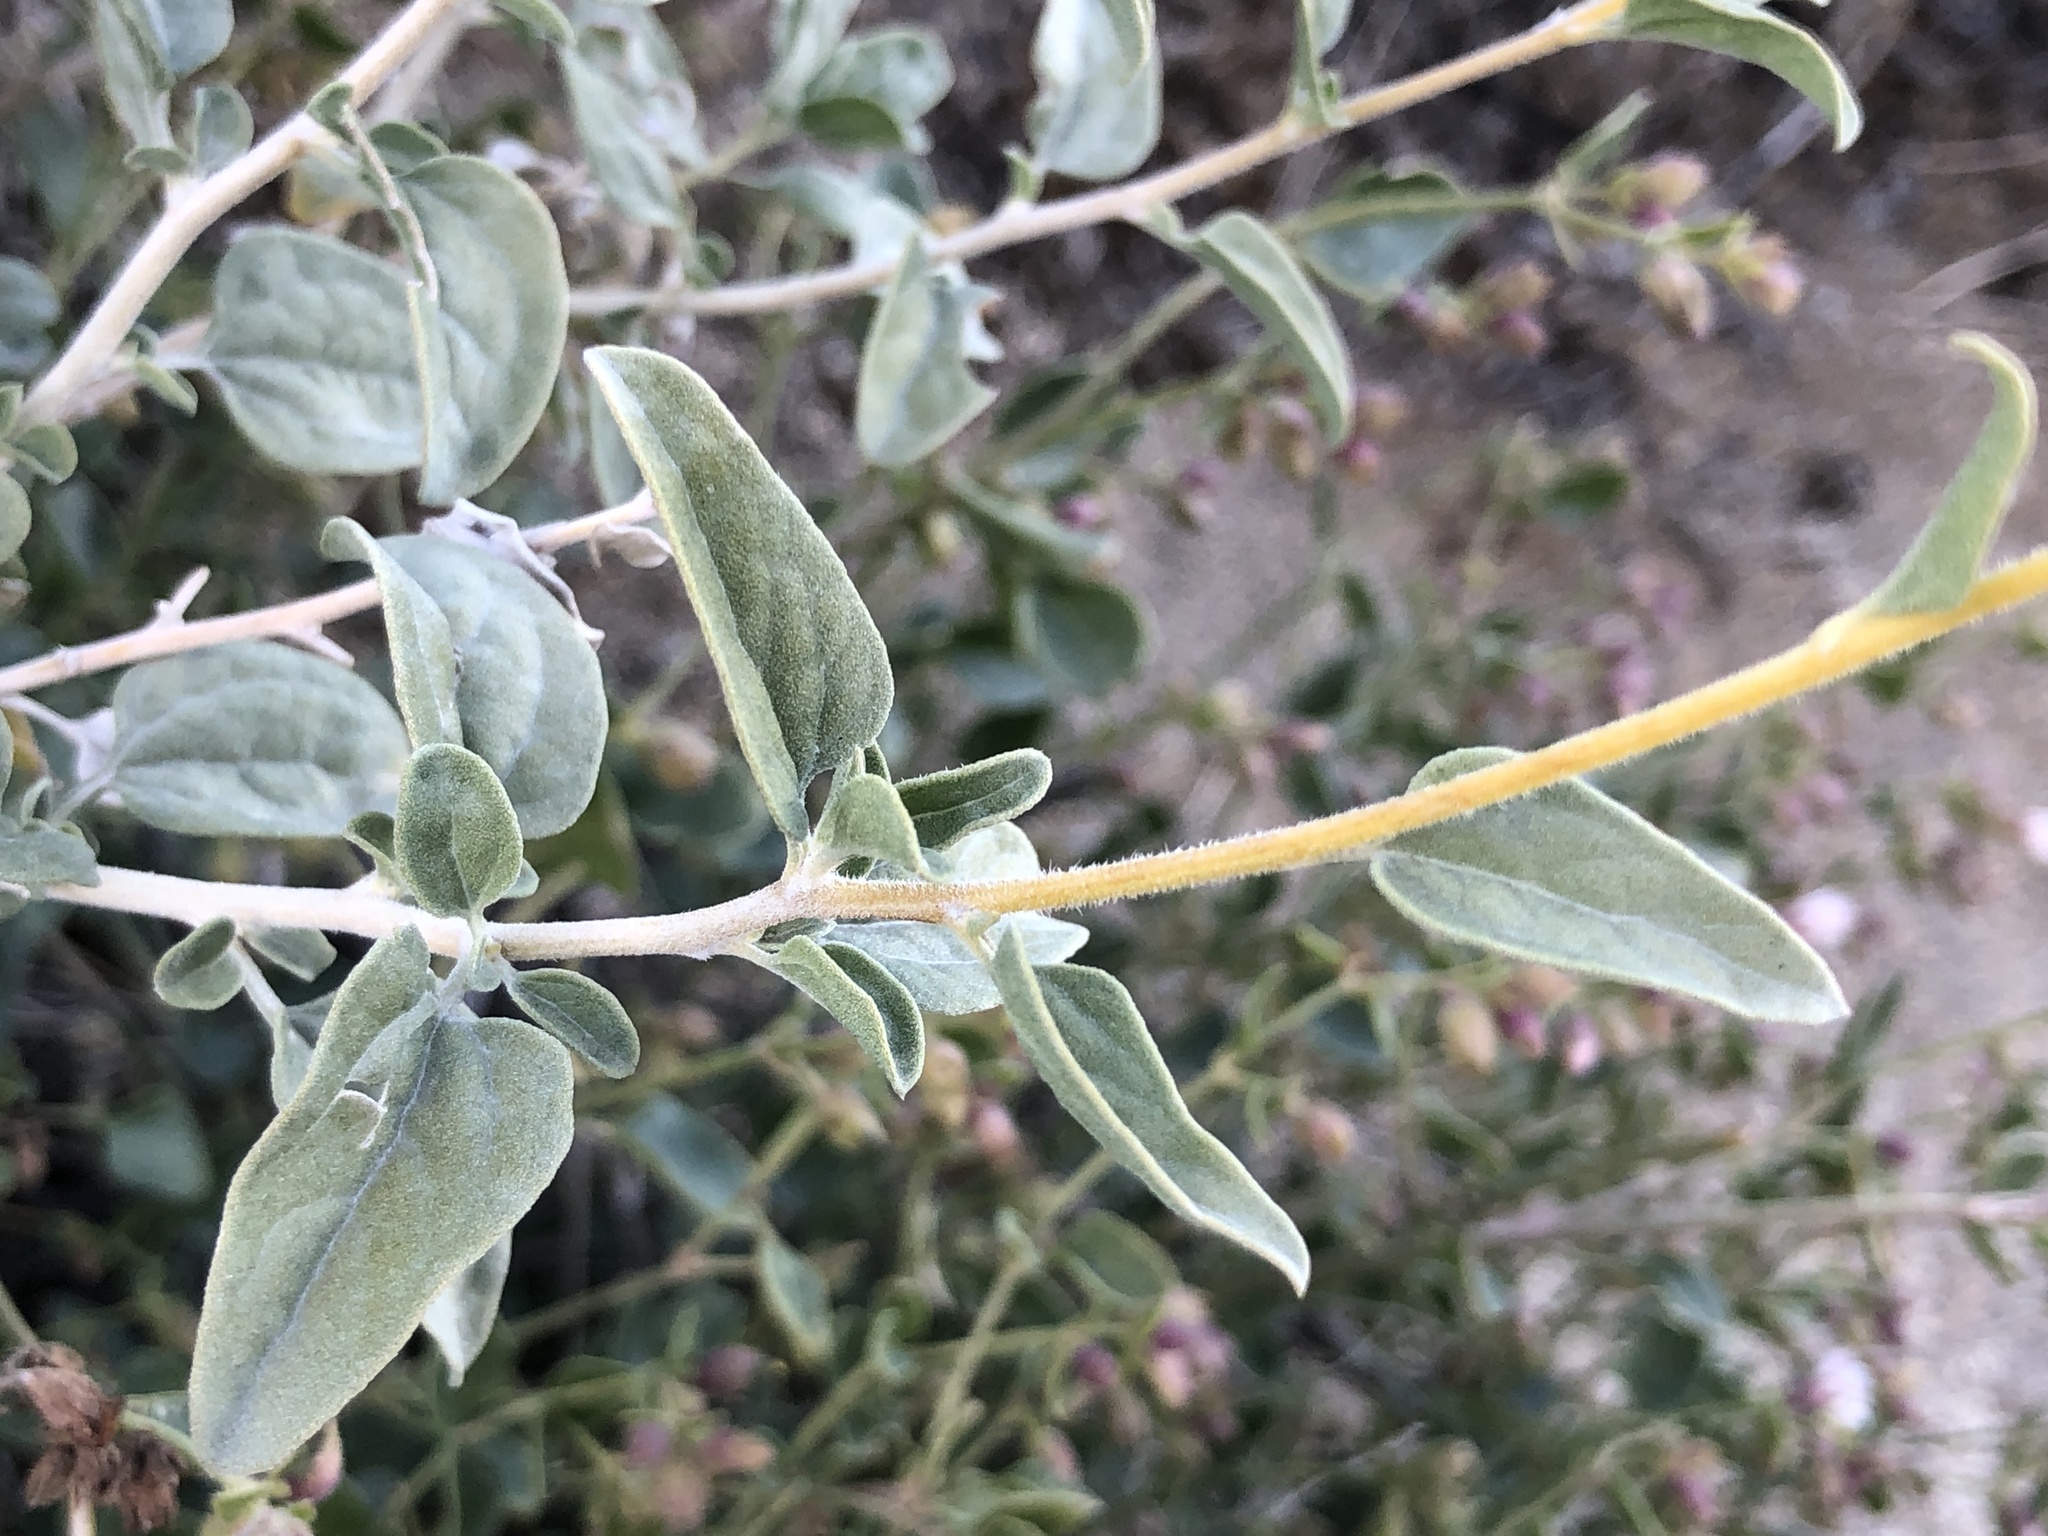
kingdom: Plantae
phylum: Tracheophyta
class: Magnoliopsida
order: Asterales
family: Asteraceae
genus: Encelia
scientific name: Encelia actoni
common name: Acton encelia
